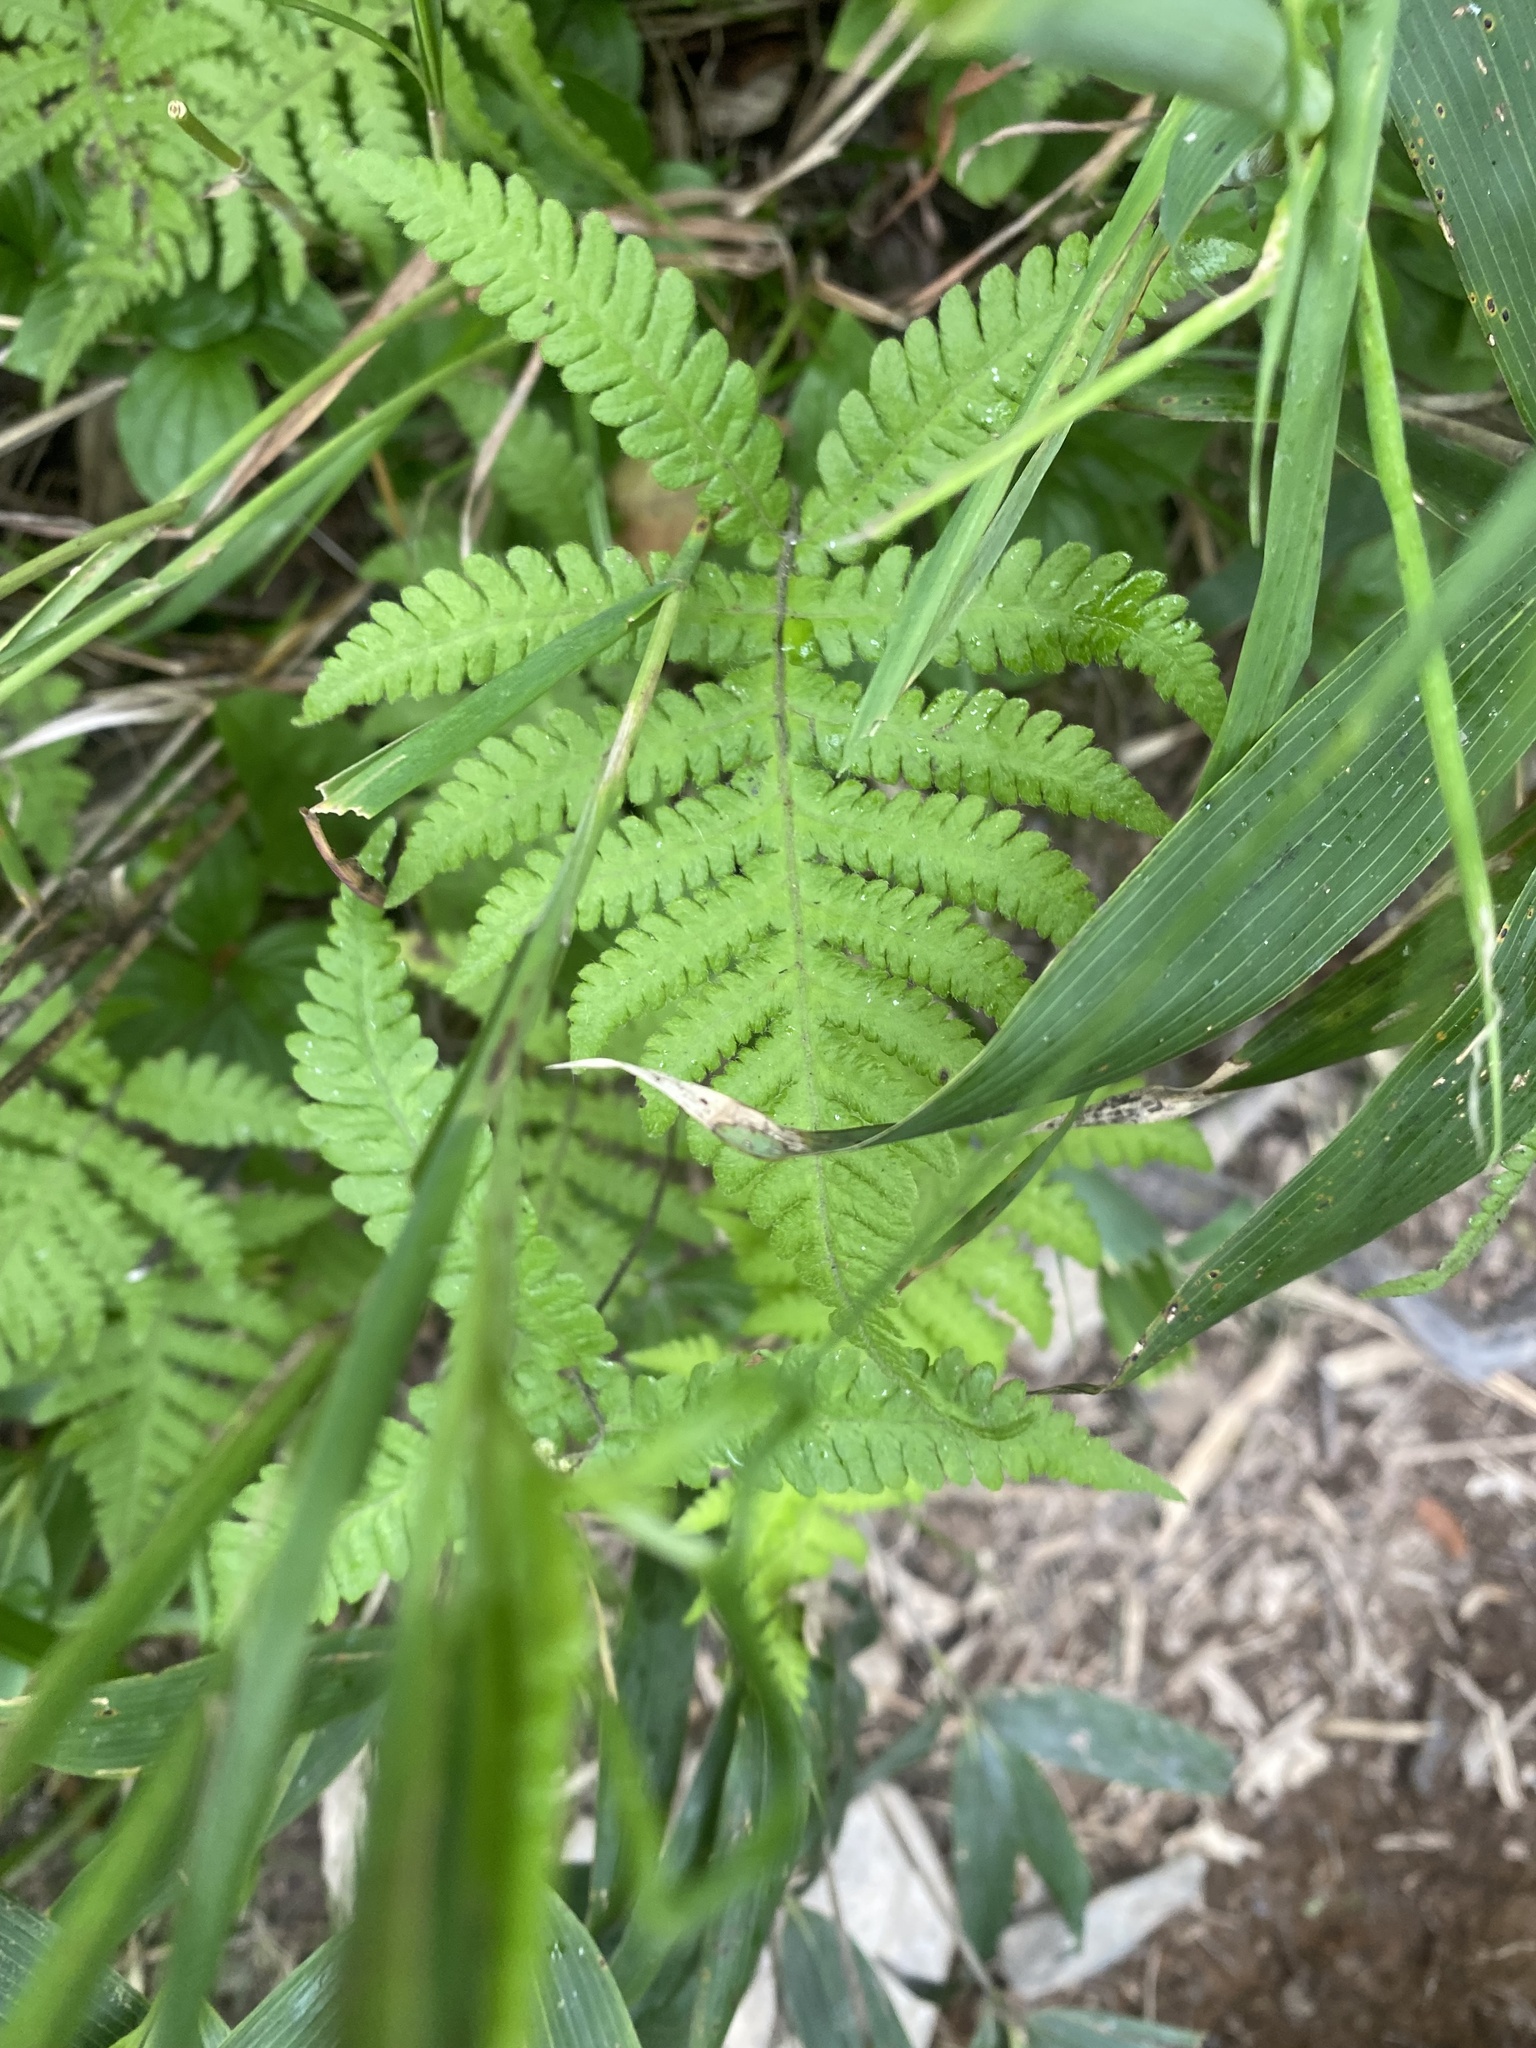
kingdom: Plantae
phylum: Tracheophyta
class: Polypodiopsida
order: Polypodiales
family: Thelypteridaceae
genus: Phegopteris
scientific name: Phegopteris connectilis
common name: Beech fern
